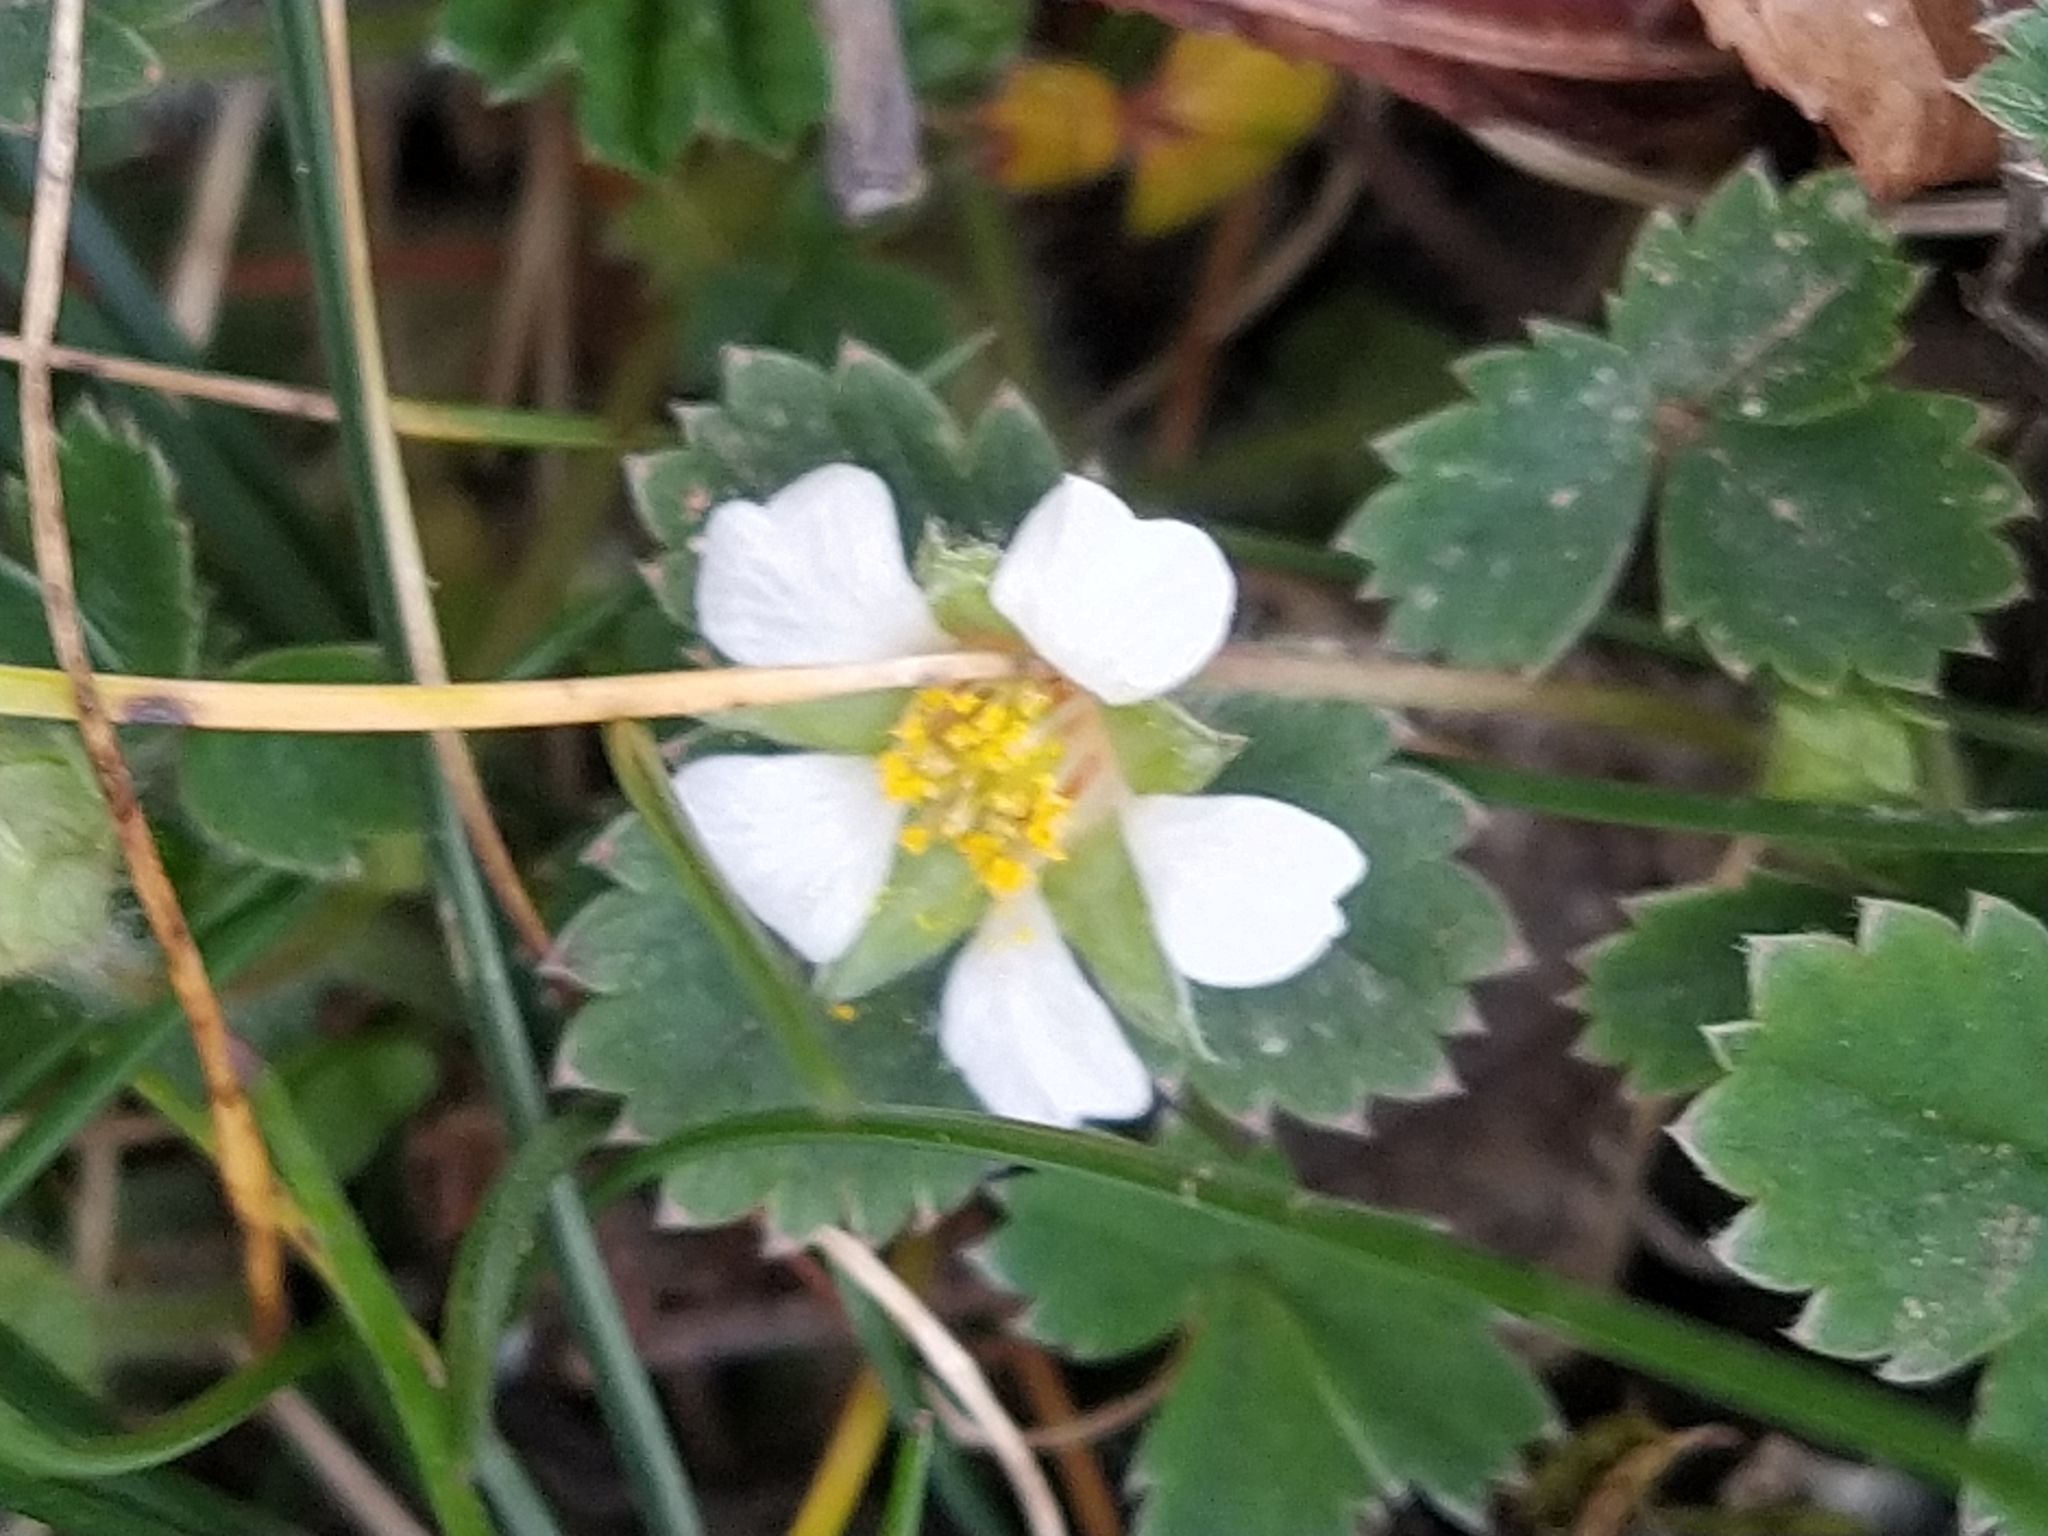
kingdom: Plantae
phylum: Tracheophyta
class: Magnoliopsida
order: Rosales
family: Rosaceae
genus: Potentilla
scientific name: Potentilla sterilis
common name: Barren strawberry
